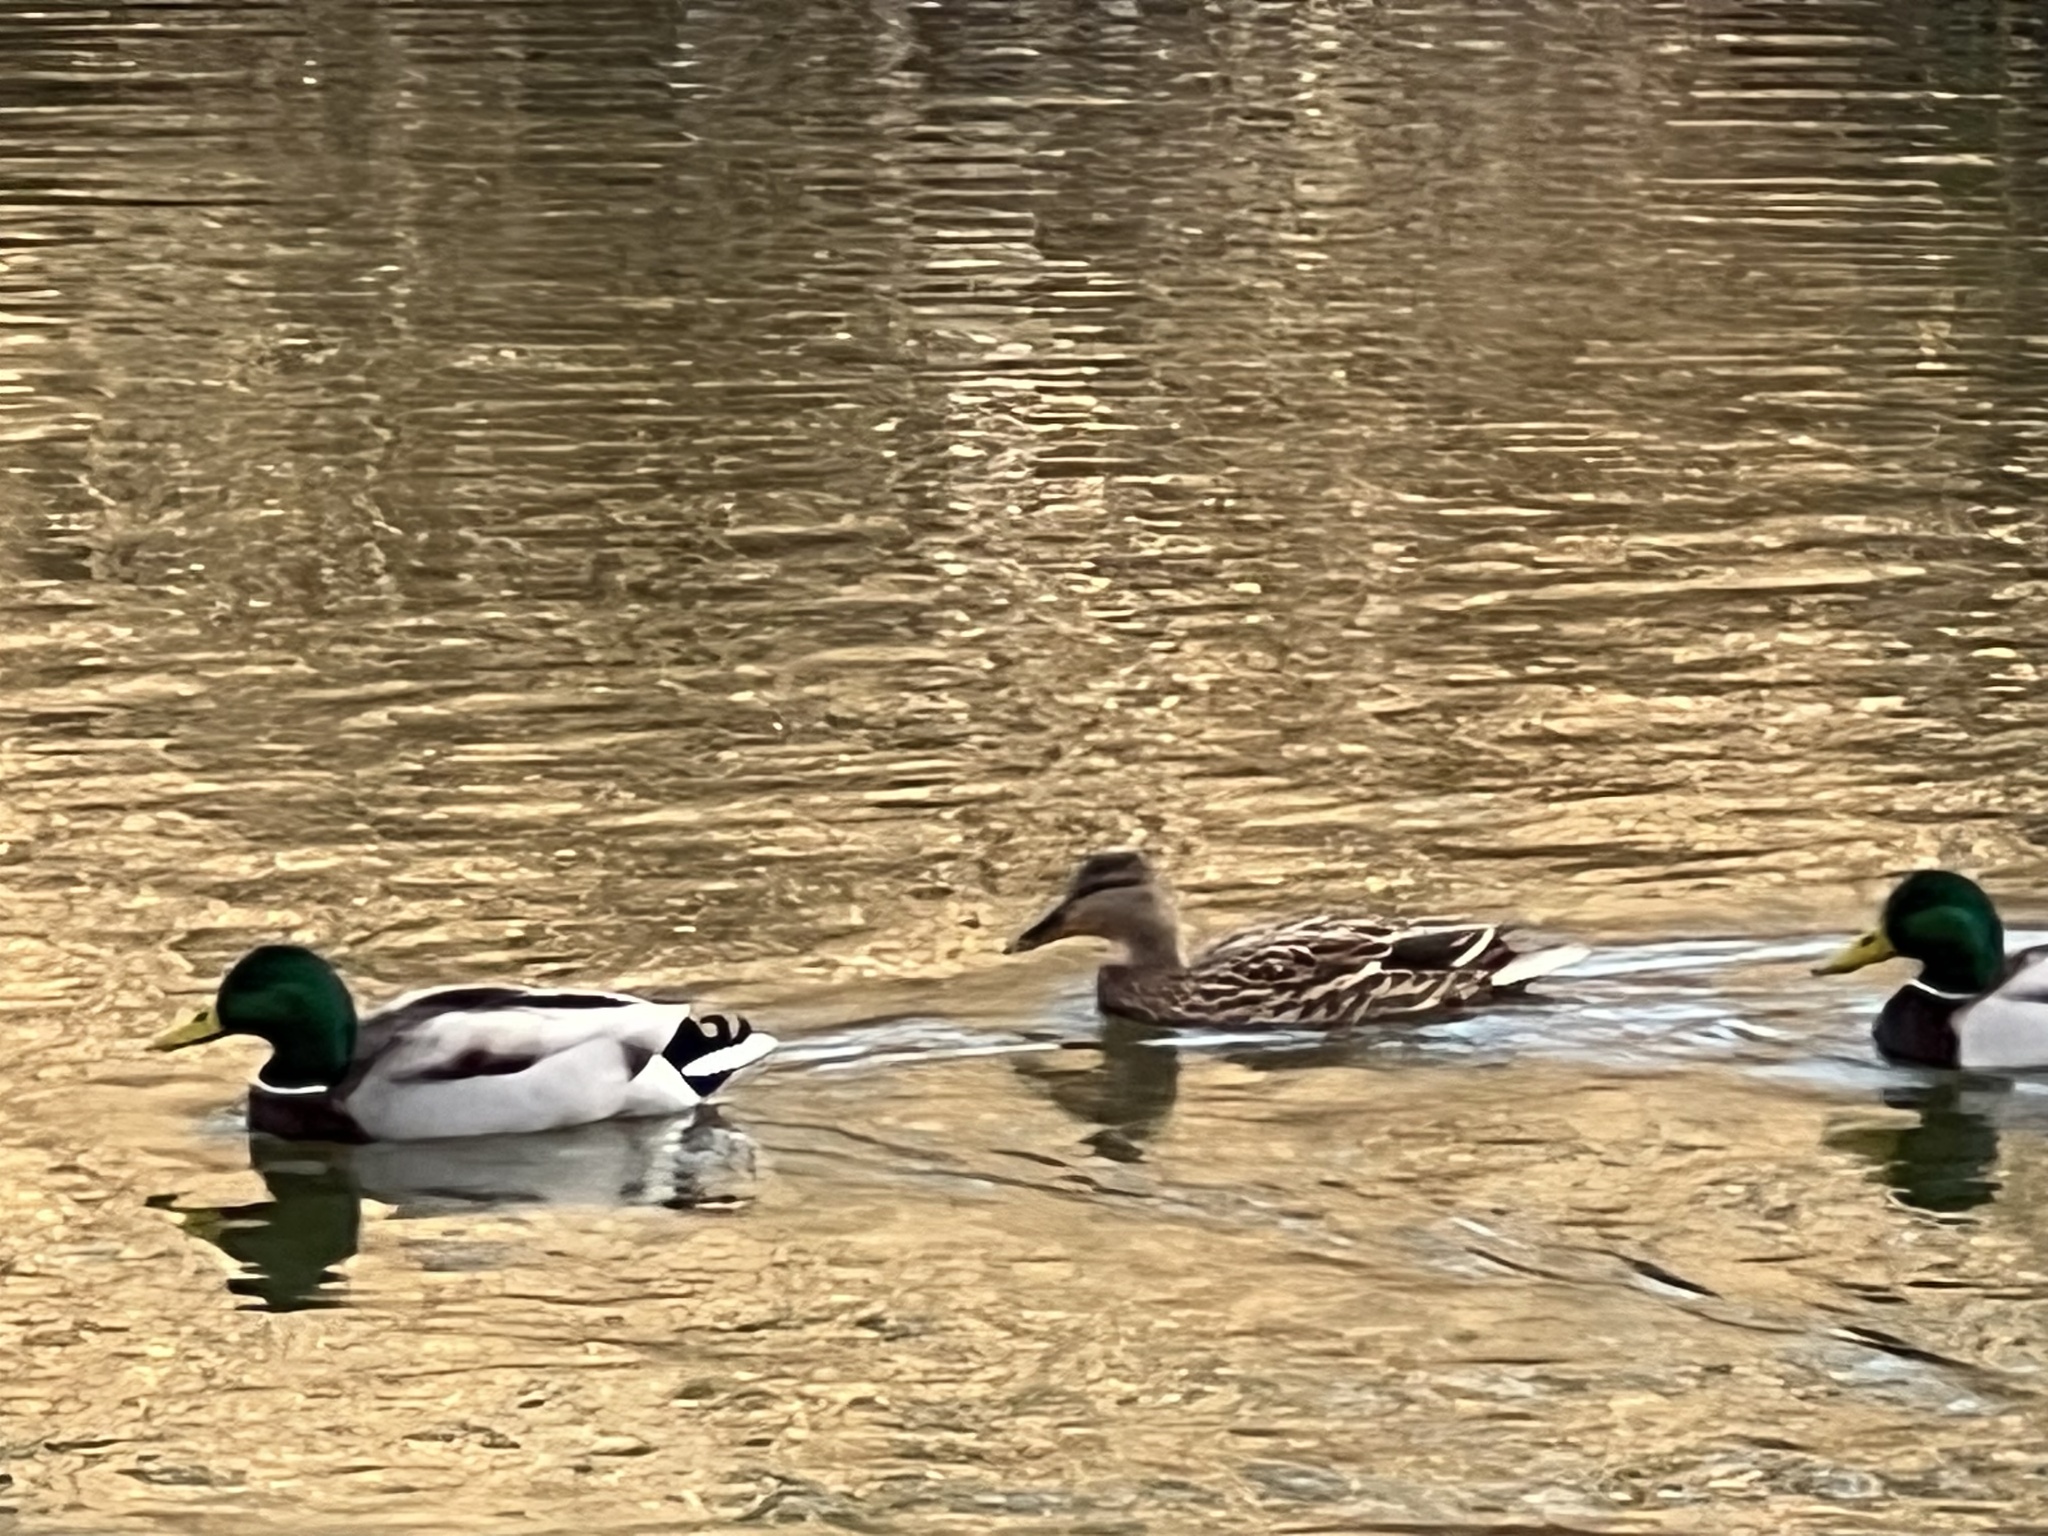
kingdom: Animalia
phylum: Chordata
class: Aves
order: Anseriformes
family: Anatidae
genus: Anas
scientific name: Anas platyrhynchos
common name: Mallard
